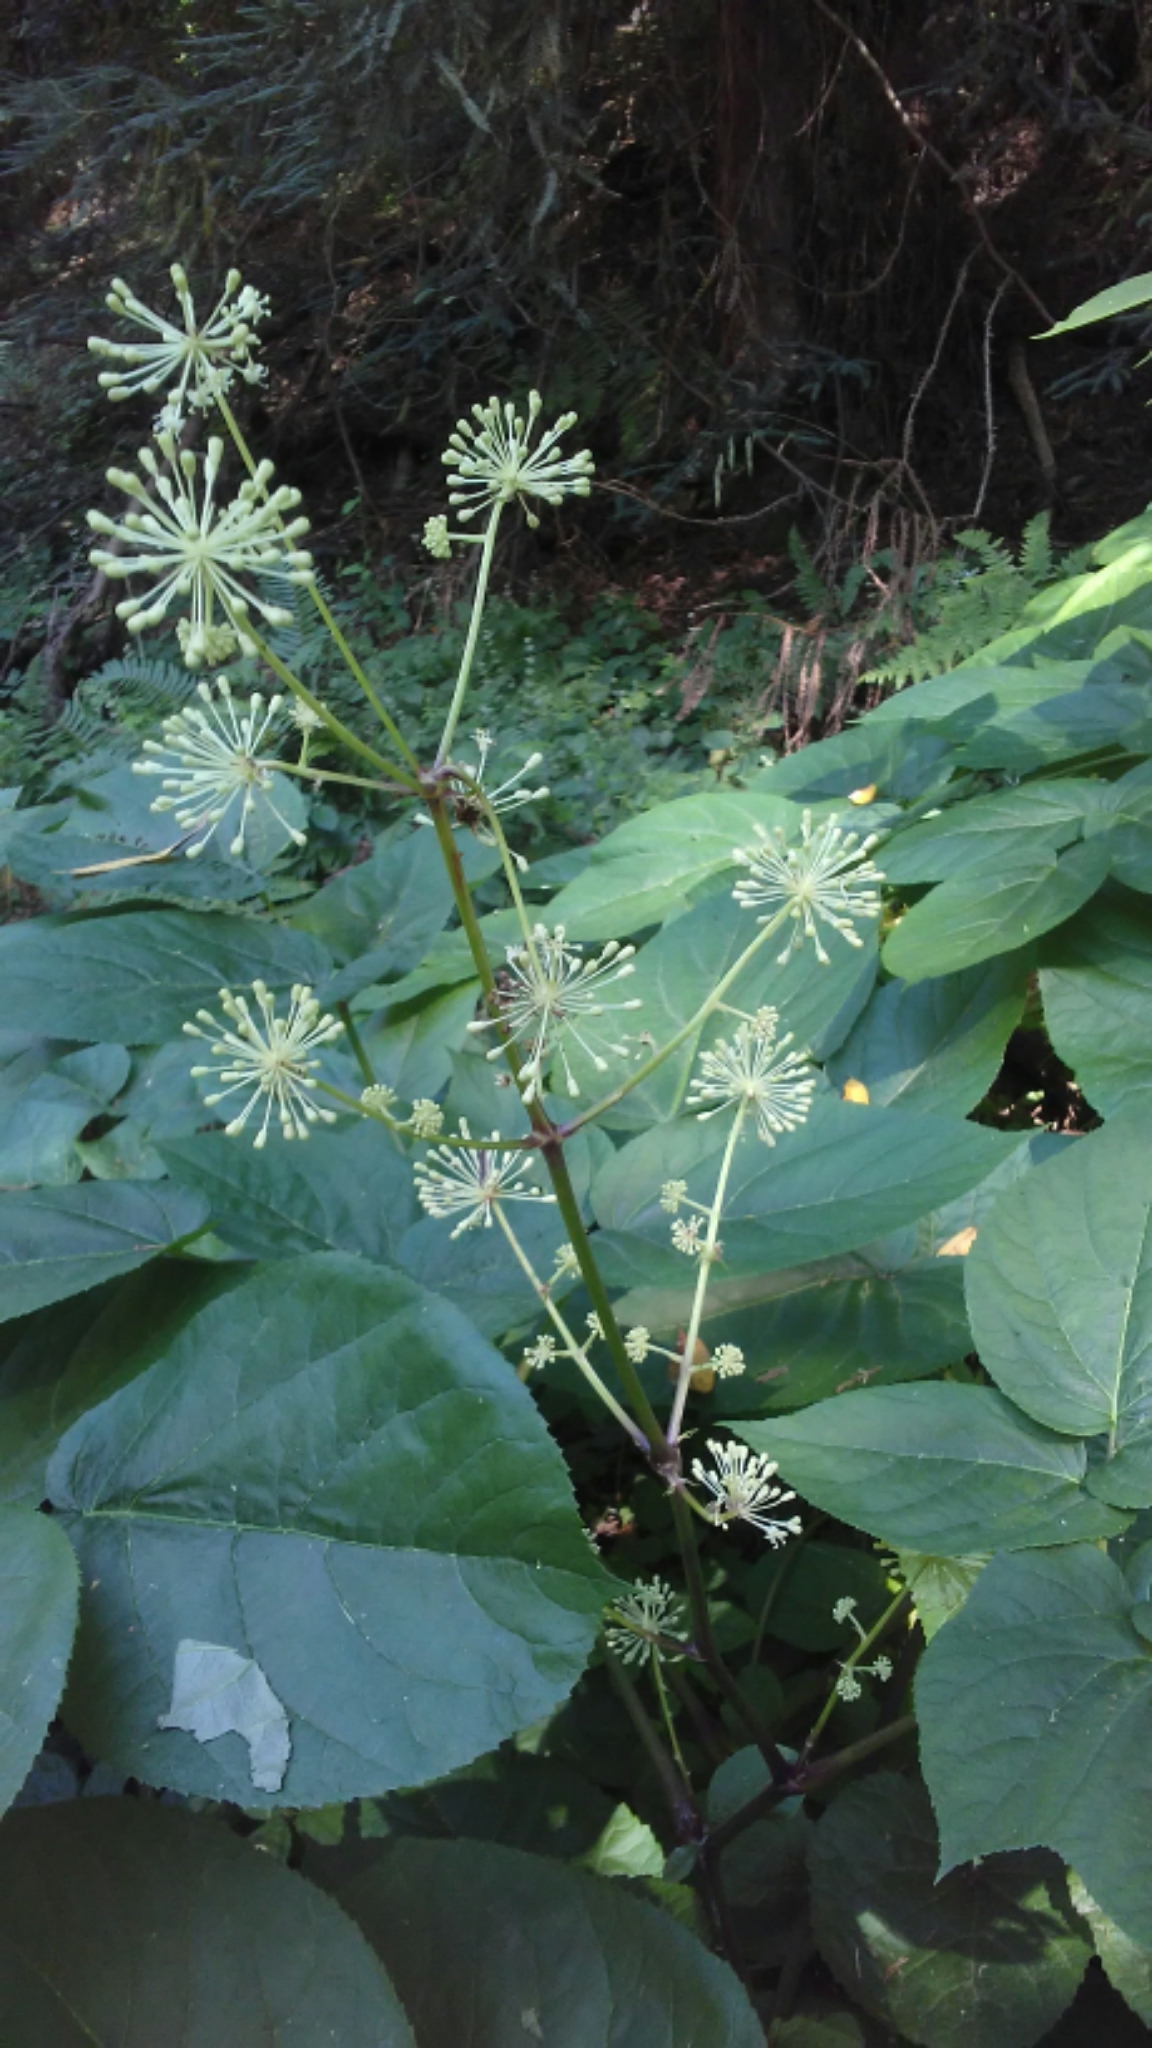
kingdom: Plantae
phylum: Tracheophyta
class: Magnoliopsida
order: Apiales
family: Araliaceae
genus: Aralia
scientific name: Aralia californica
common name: California-ginseng
